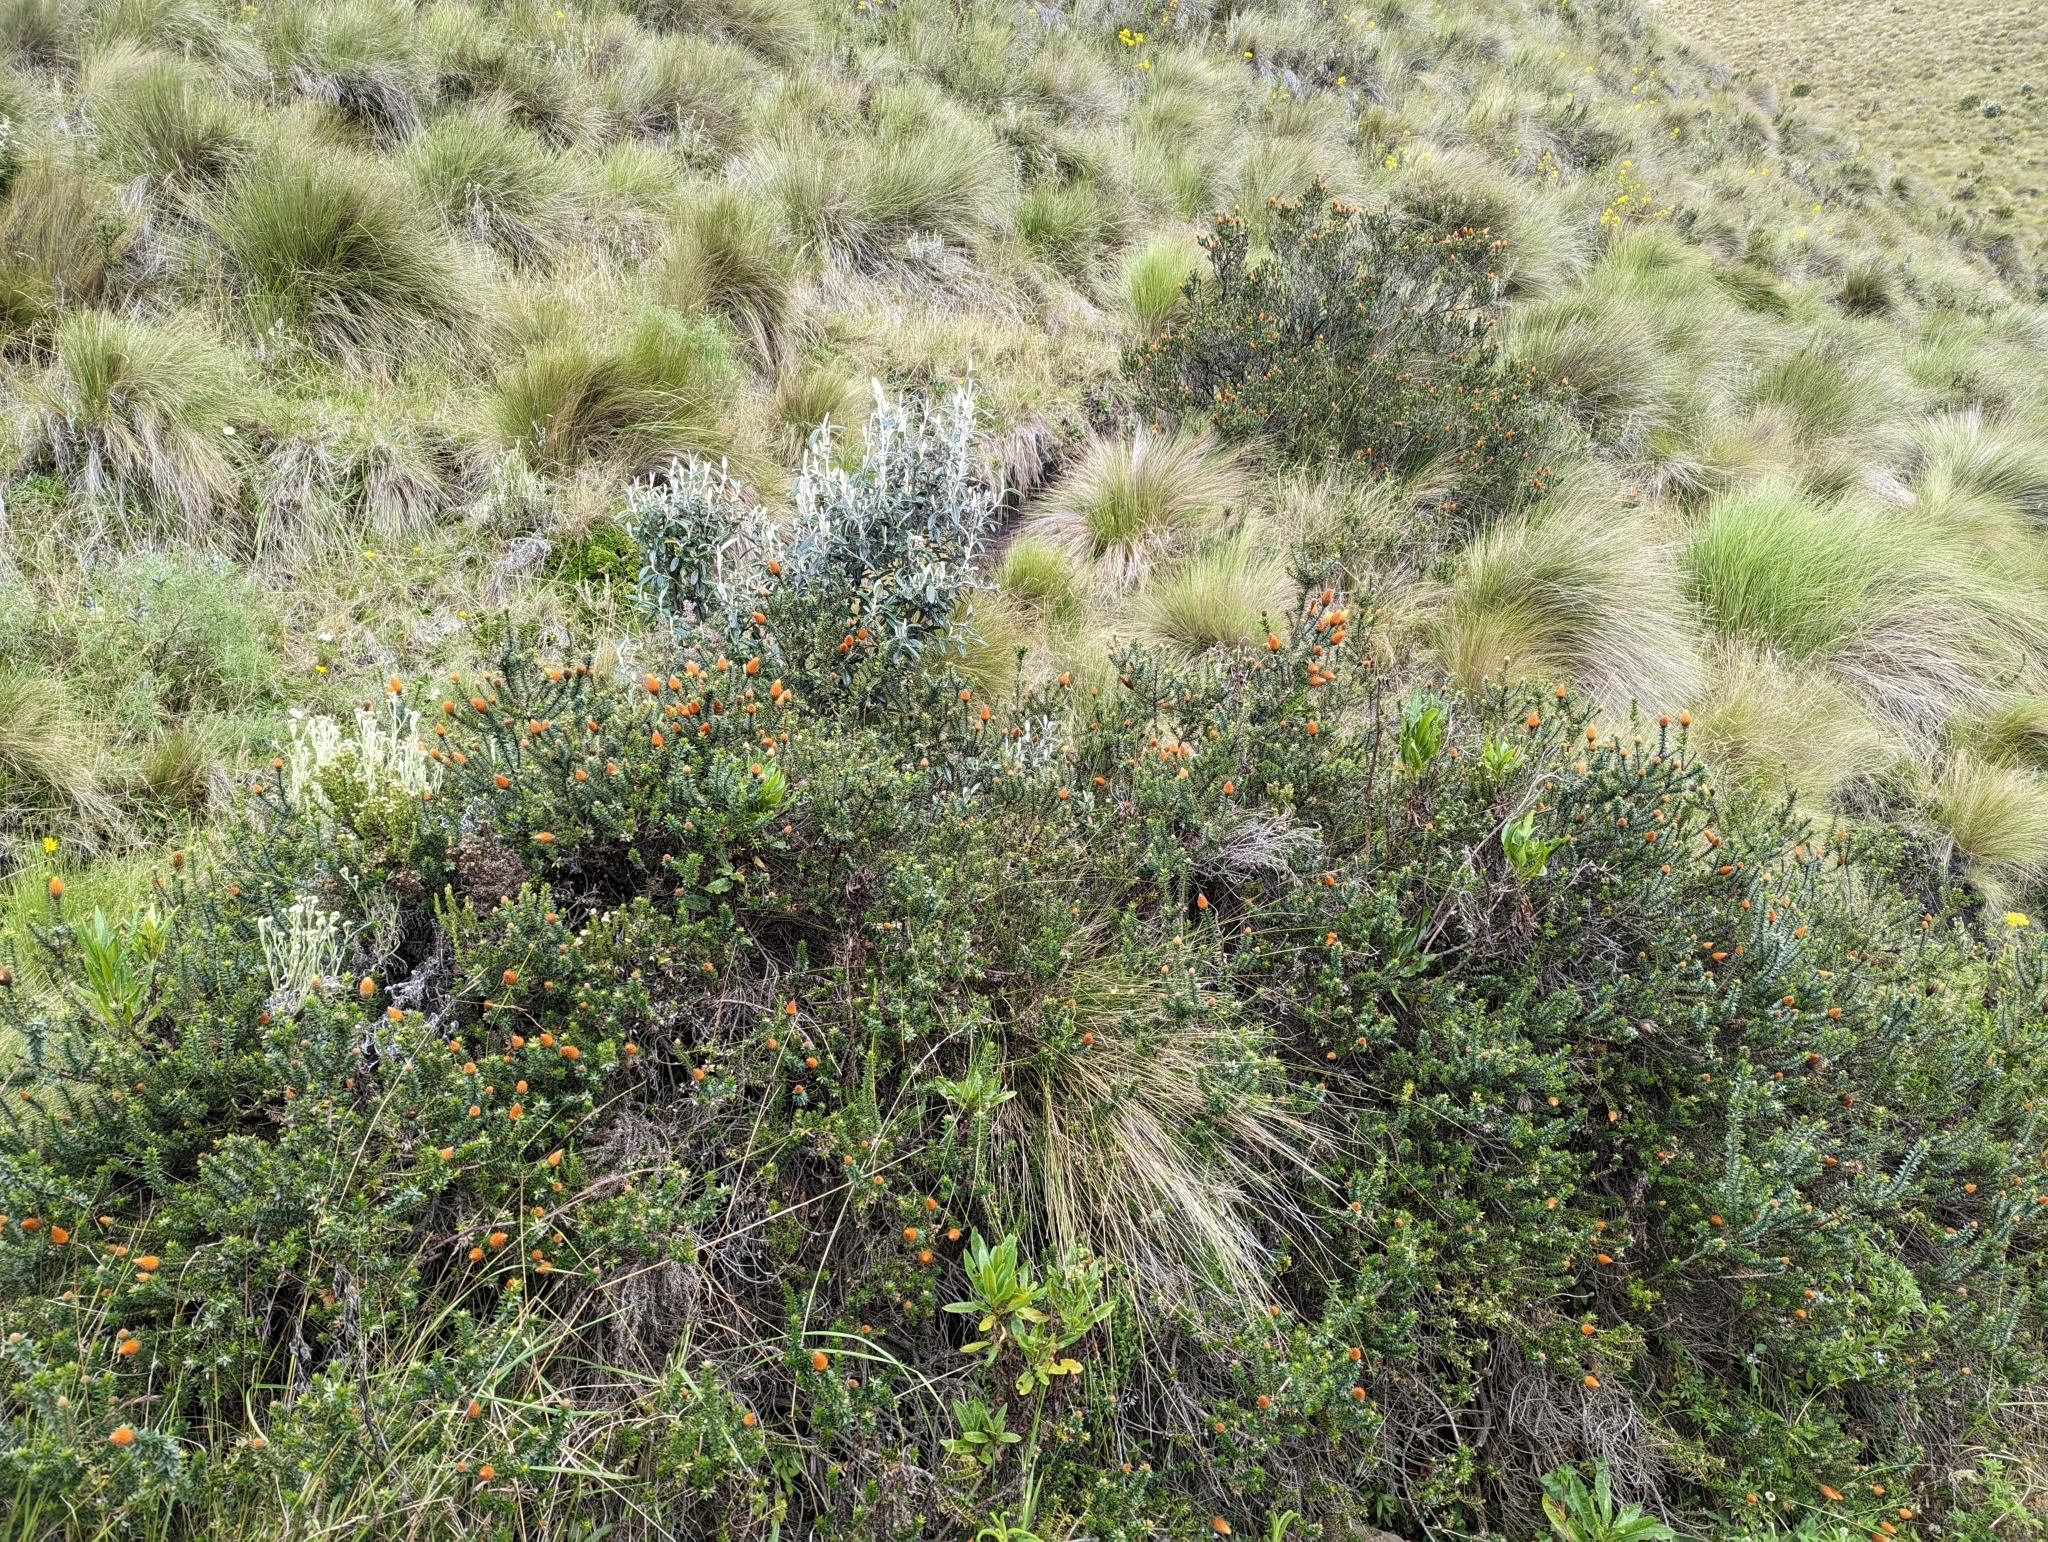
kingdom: Plantae
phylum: Tracheophyta
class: Magnoliopsida
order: Asterales
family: Asteraceae
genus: Chuquiraga
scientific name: Chuquiraga jussieui
